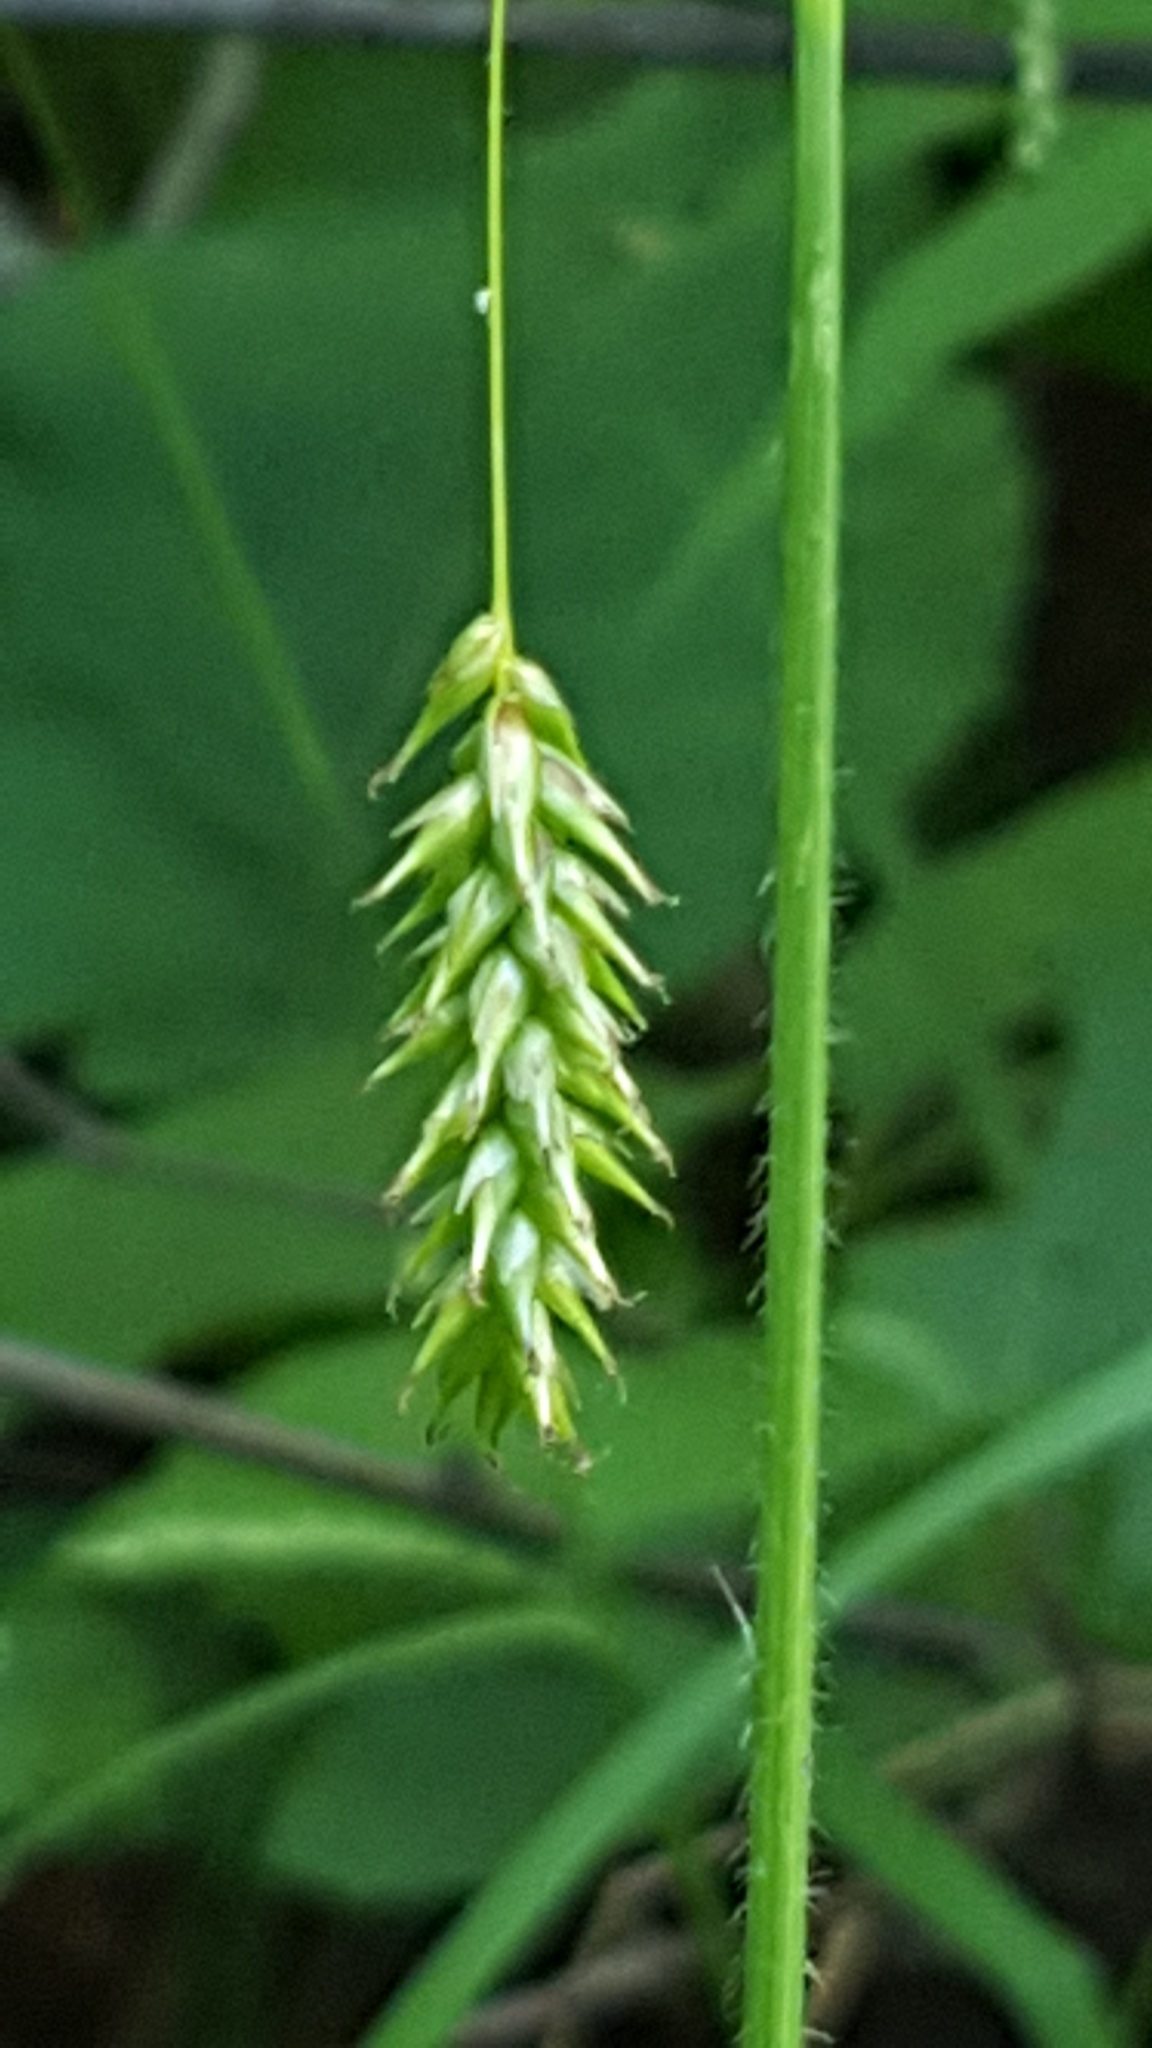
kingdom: Plantae
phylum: Tracheophyta
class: Liliopsida
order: Poales
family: Cyperaceae
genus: Carex
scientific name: Carex castanea
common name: Chestnut sedge
